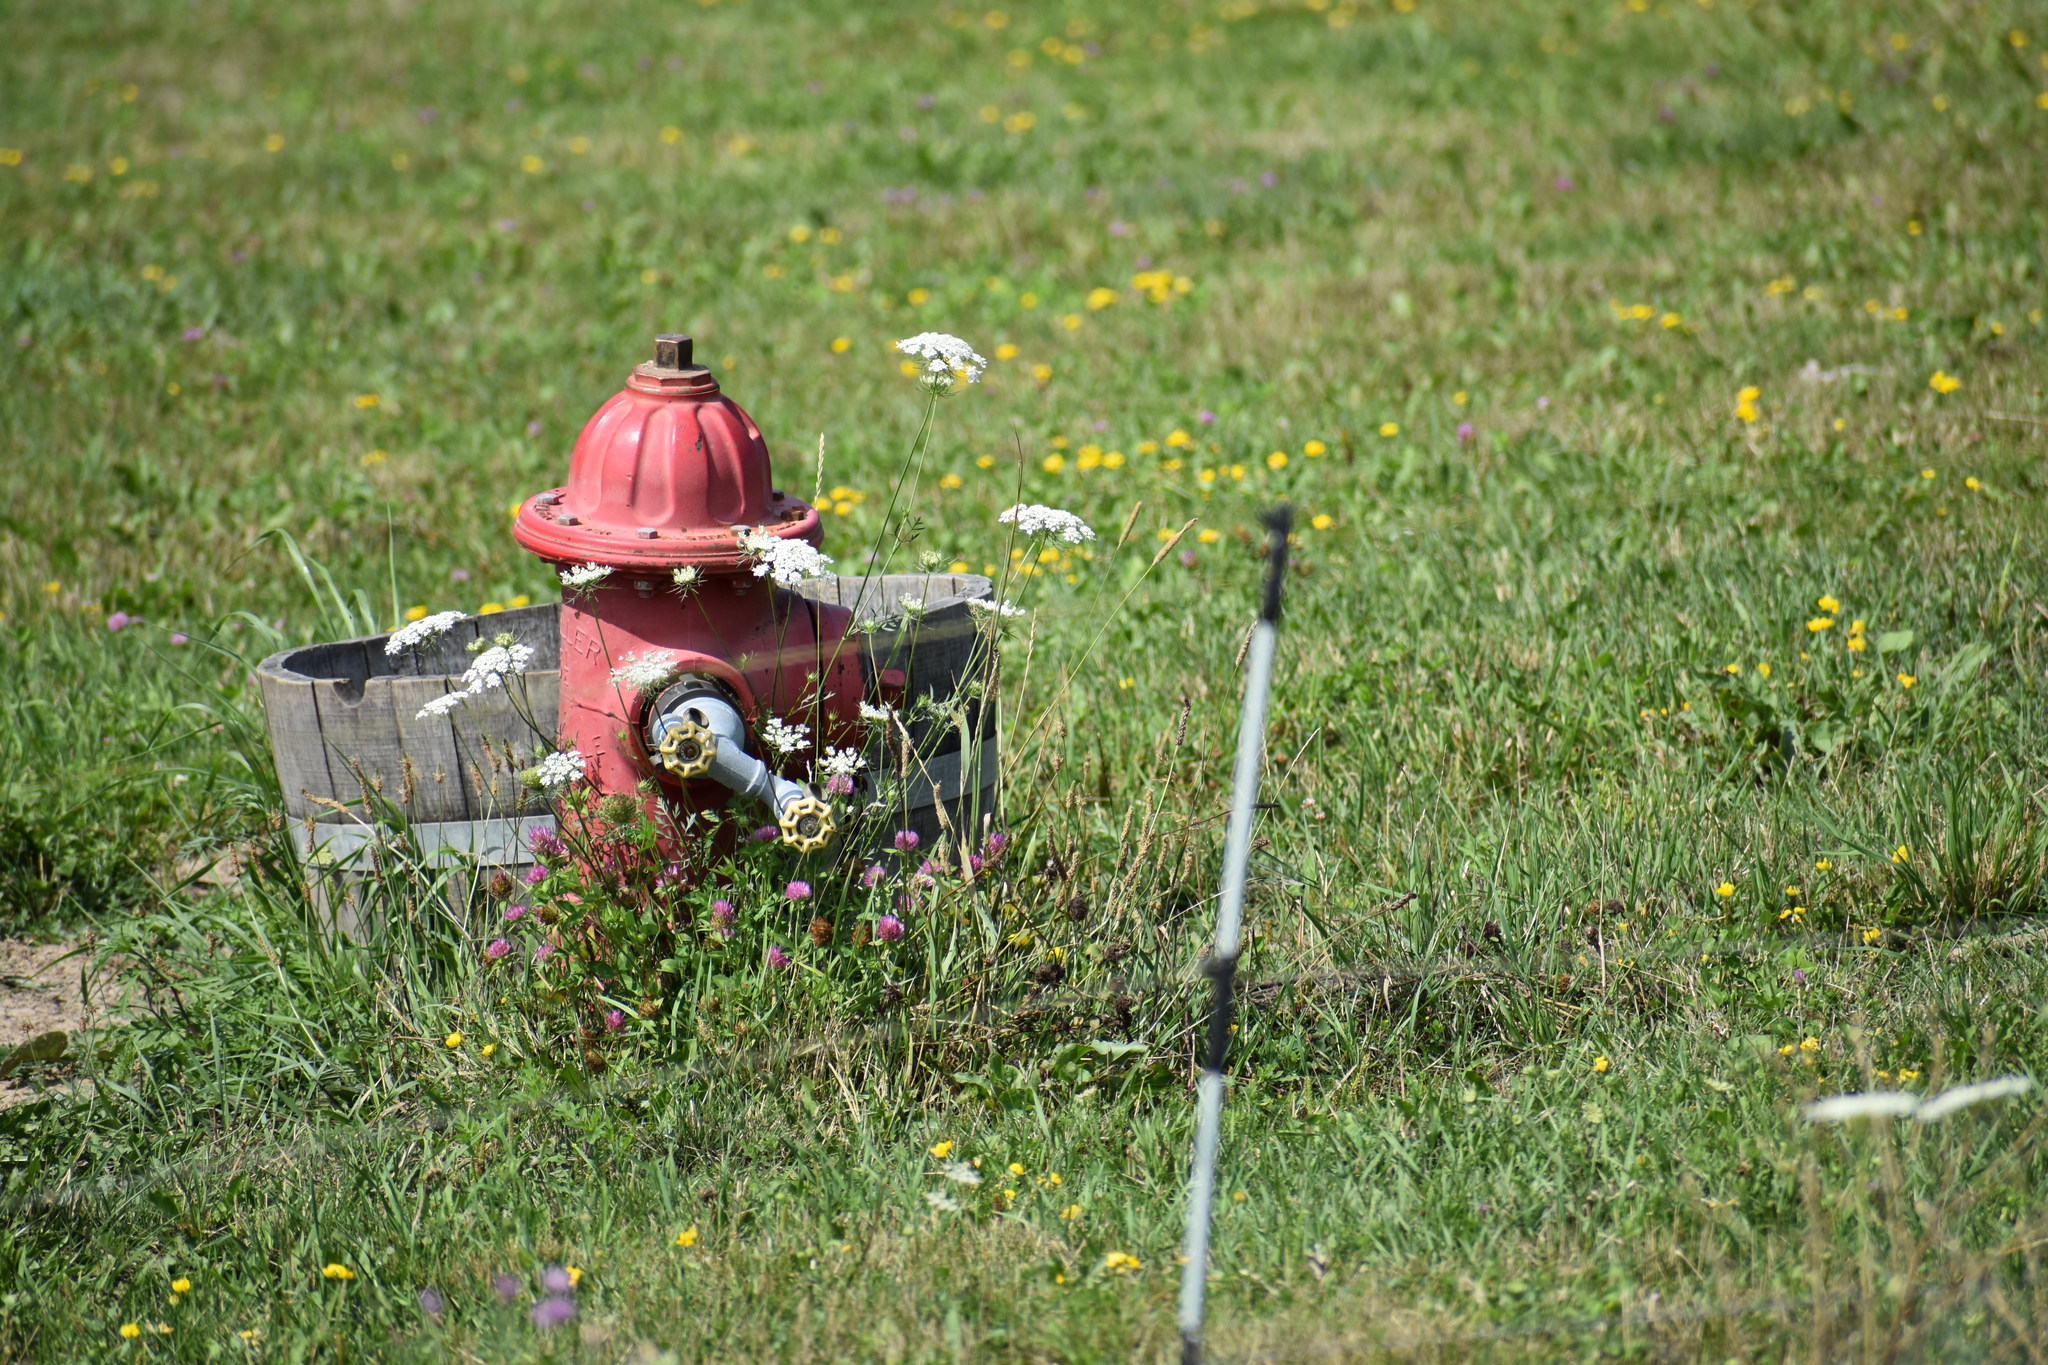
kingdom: Plantae
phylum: Tracheophyta
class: Magnoliopsida
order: Apiales
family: Apiaceae
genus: Daucus
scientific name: Daucus carota
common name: Wild carrot
